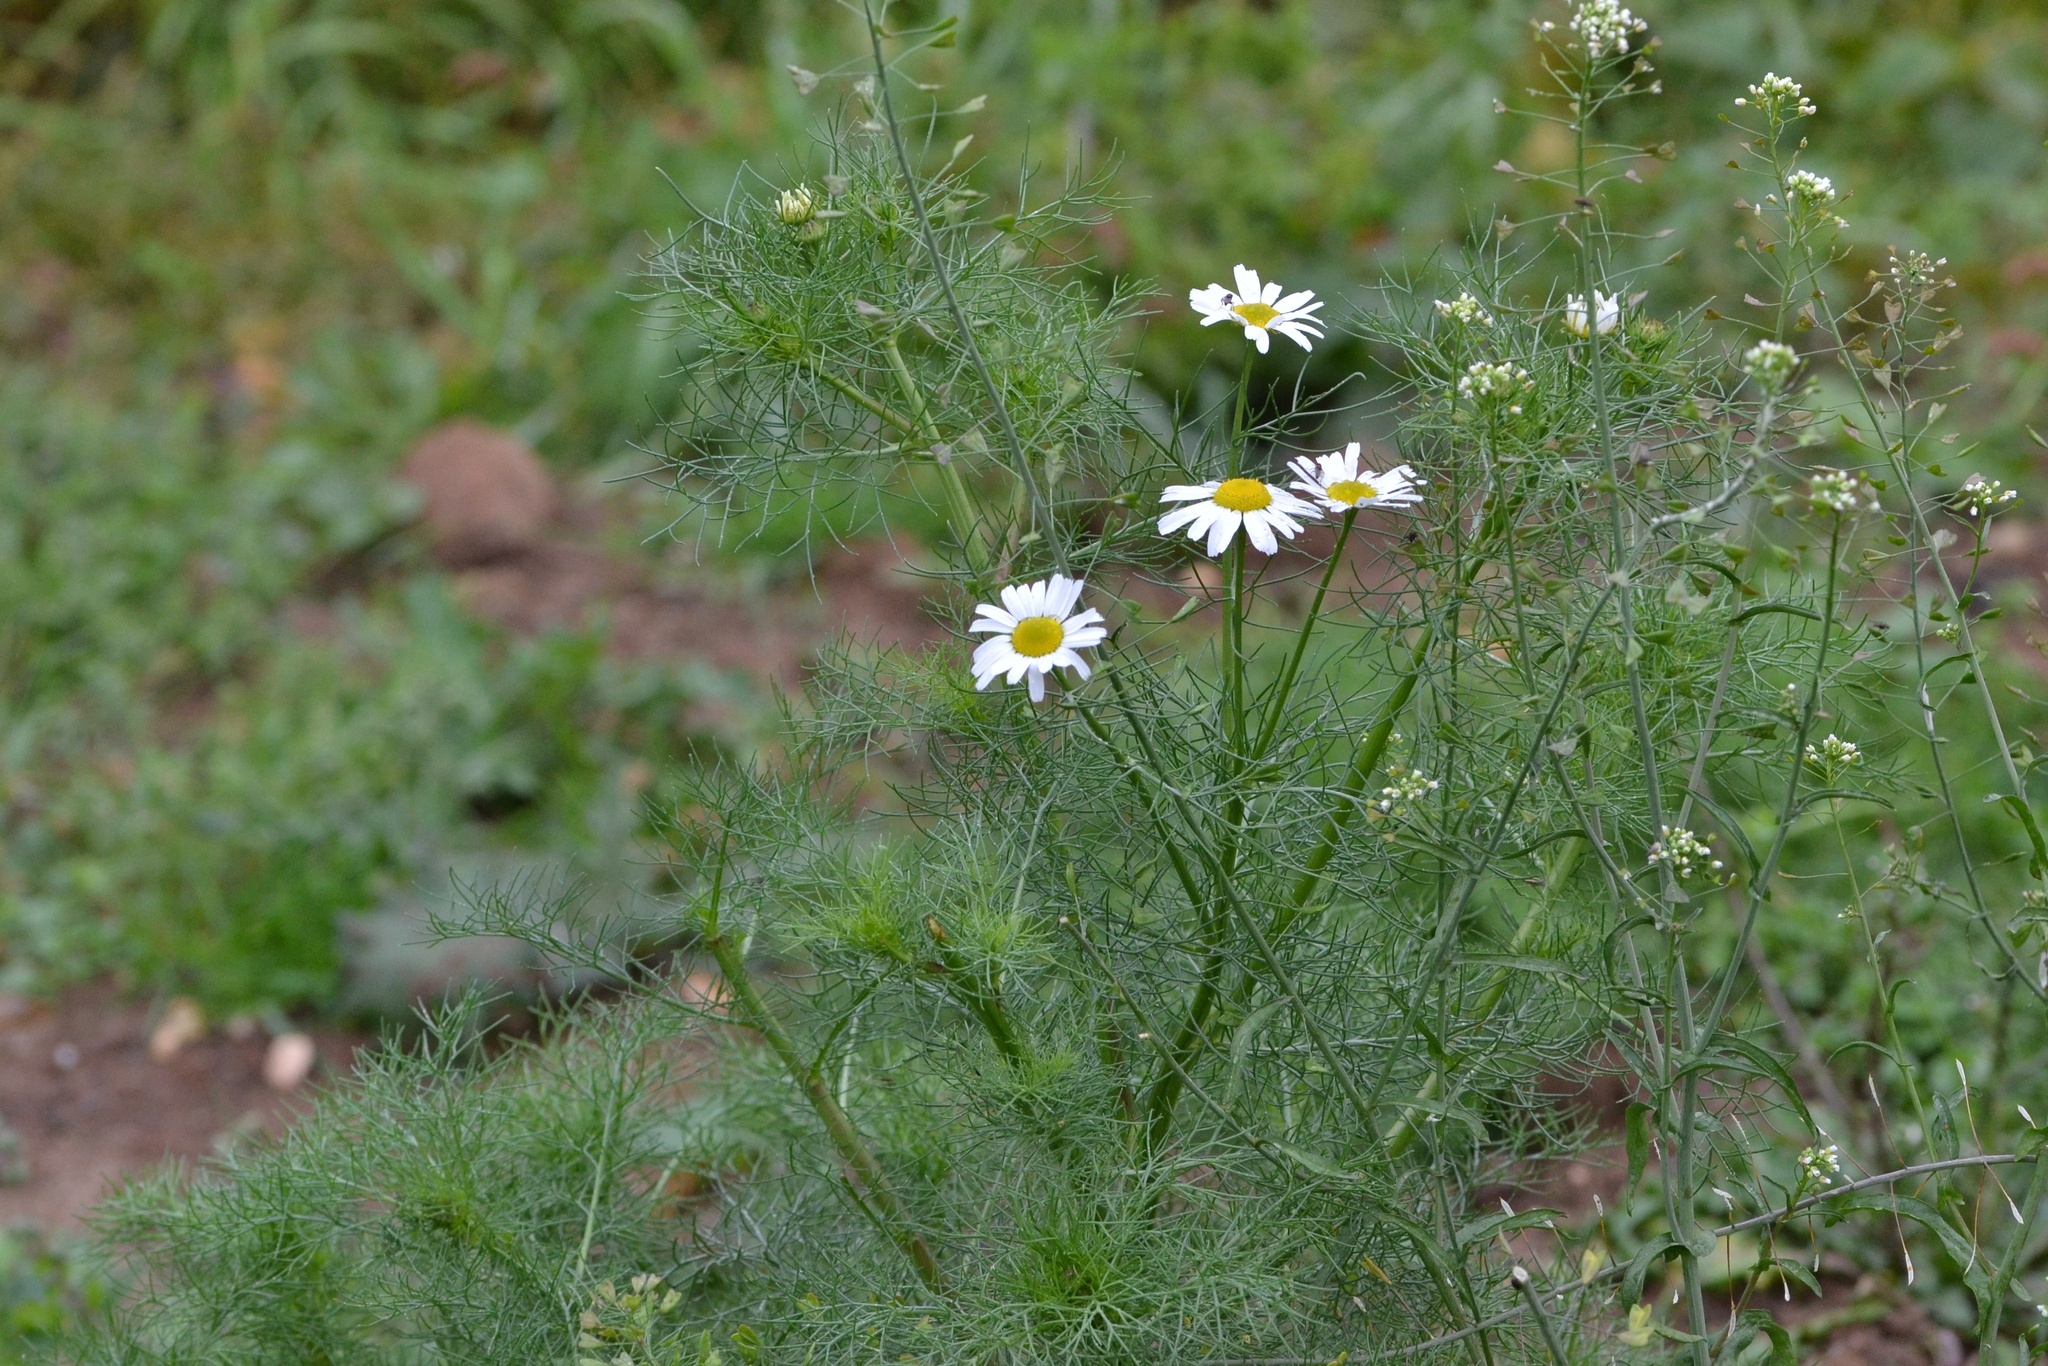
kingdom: Plantae
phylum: Tracheophyta
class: Magnoliopsida
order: Asterales
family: Asteraceae
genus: Tripleurospermum
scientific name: Tripleurospermum inodorum
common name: Scentless mayweed
